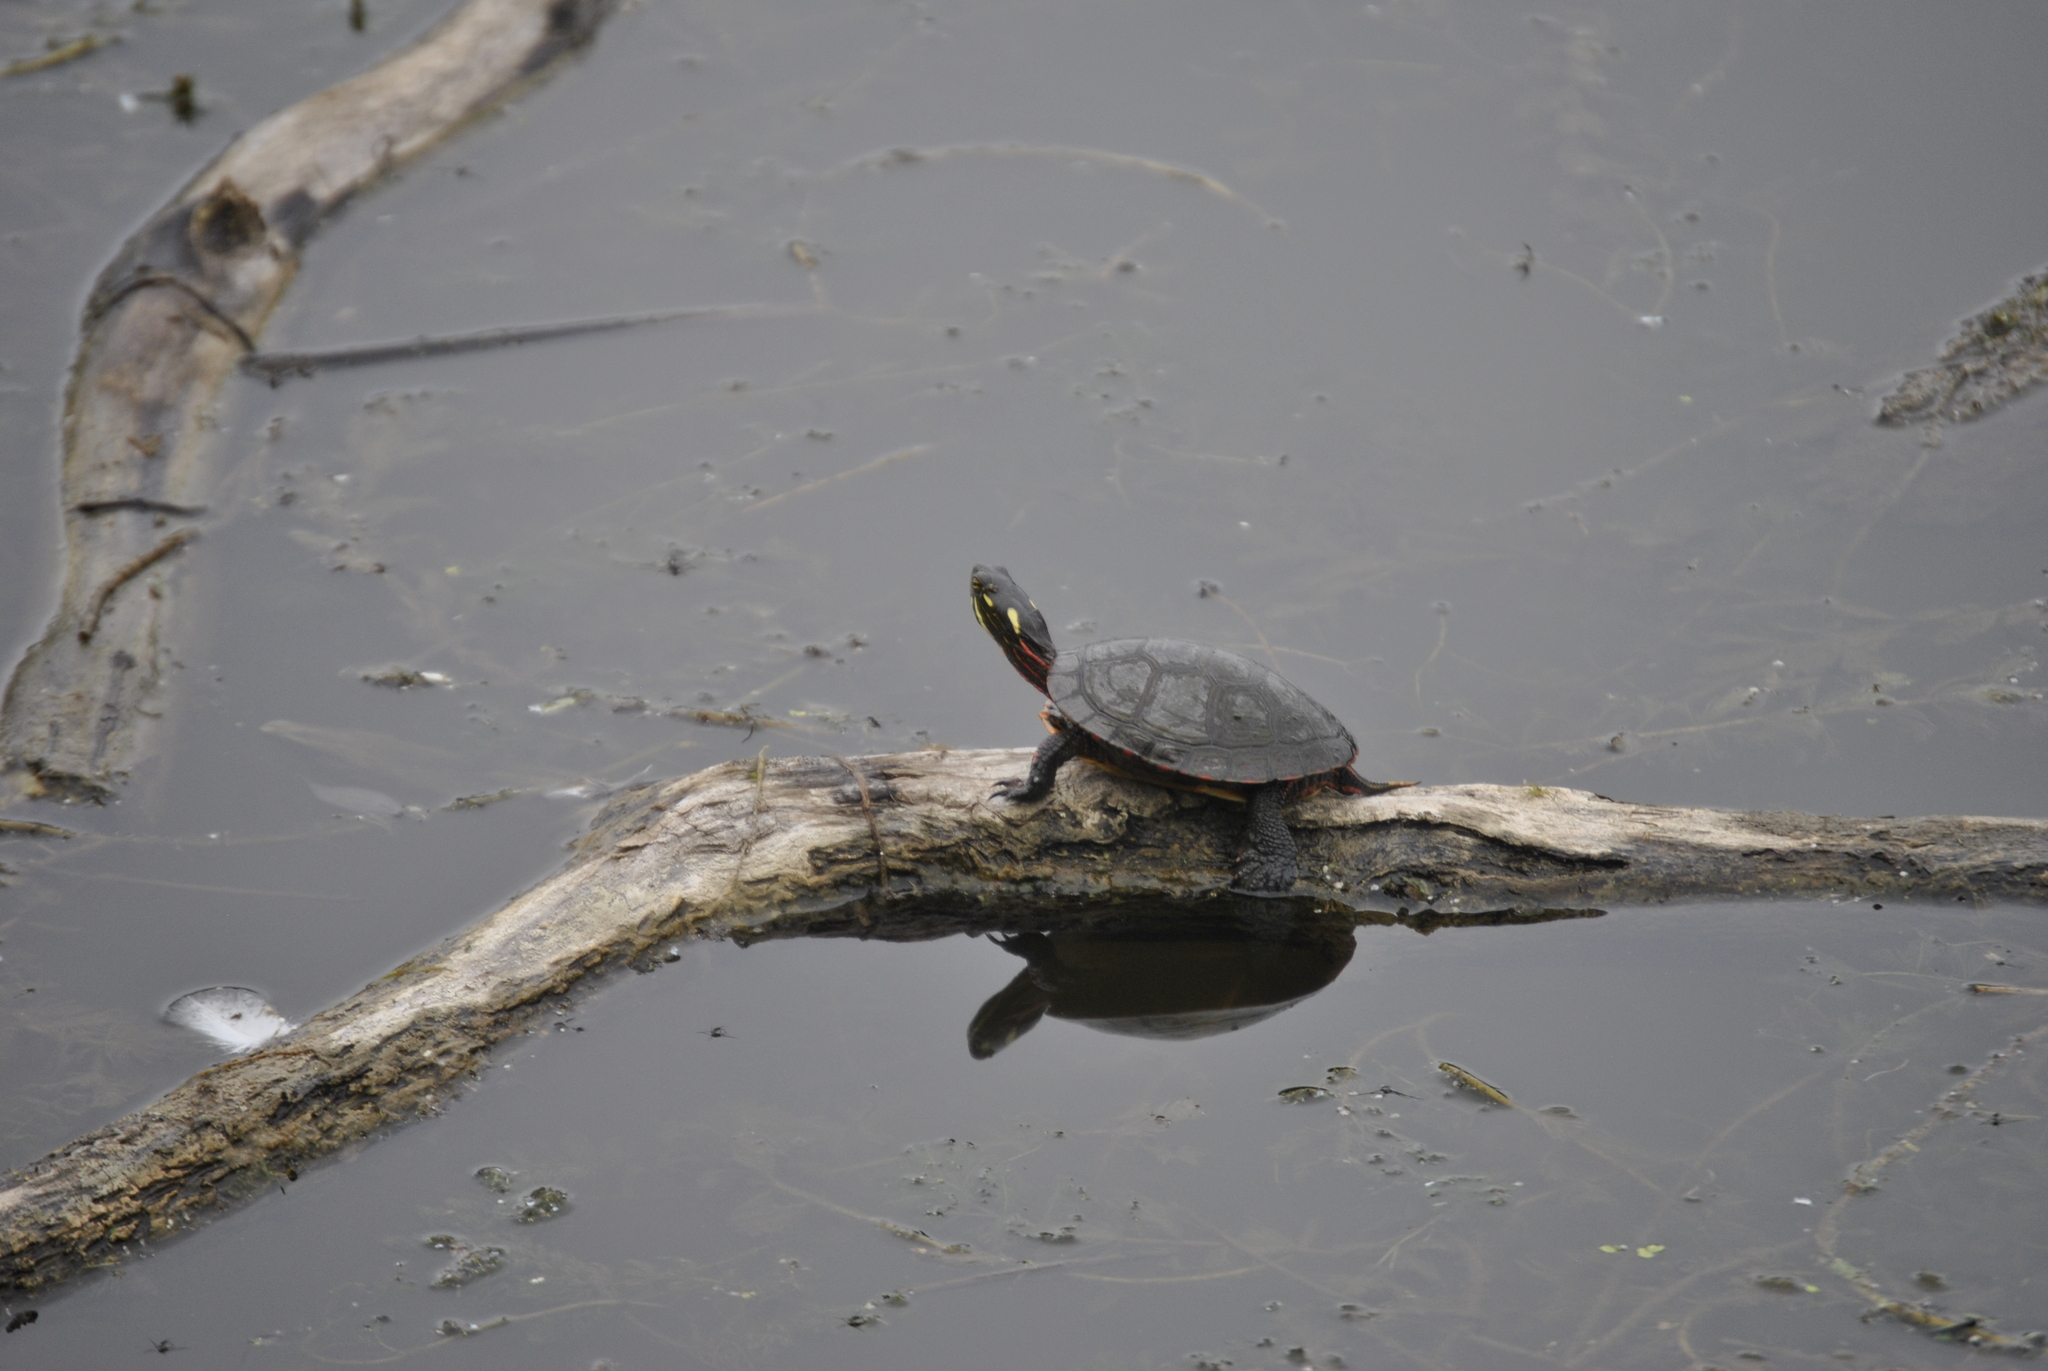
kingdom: Animalia
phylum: Chordata
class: Testudines
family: Emydidae
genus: Chrysemys
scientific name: Chrysemys picta
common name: Painted turtle
